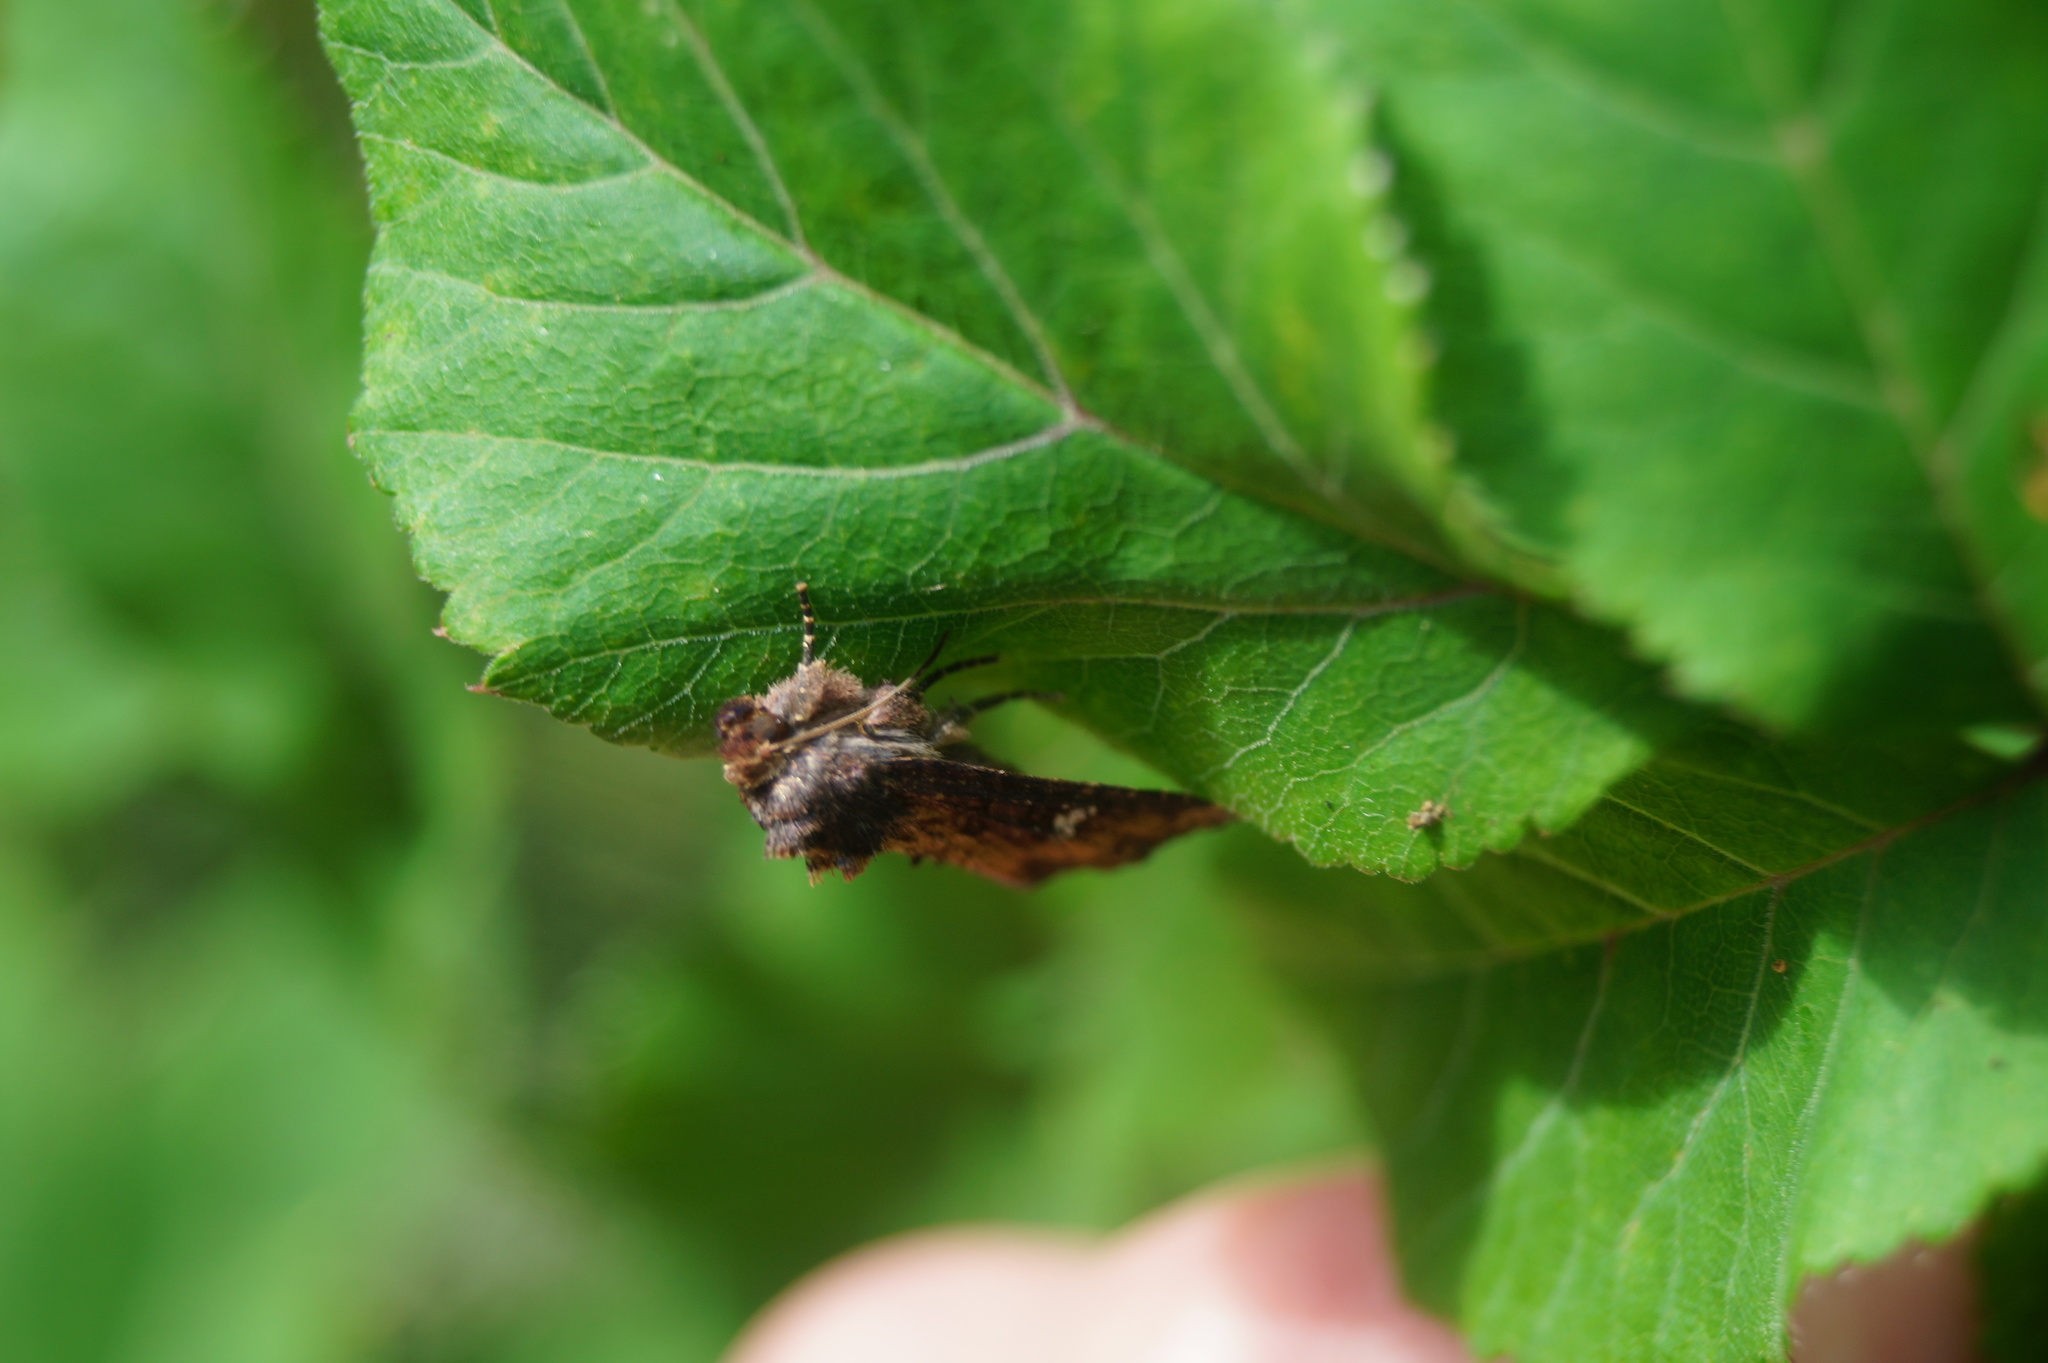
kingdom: Animalia
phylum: Arthropoda
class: Insecta
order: Lepidoptera
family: Noctuidae
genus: Mesapamea
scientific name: Mesapamea
